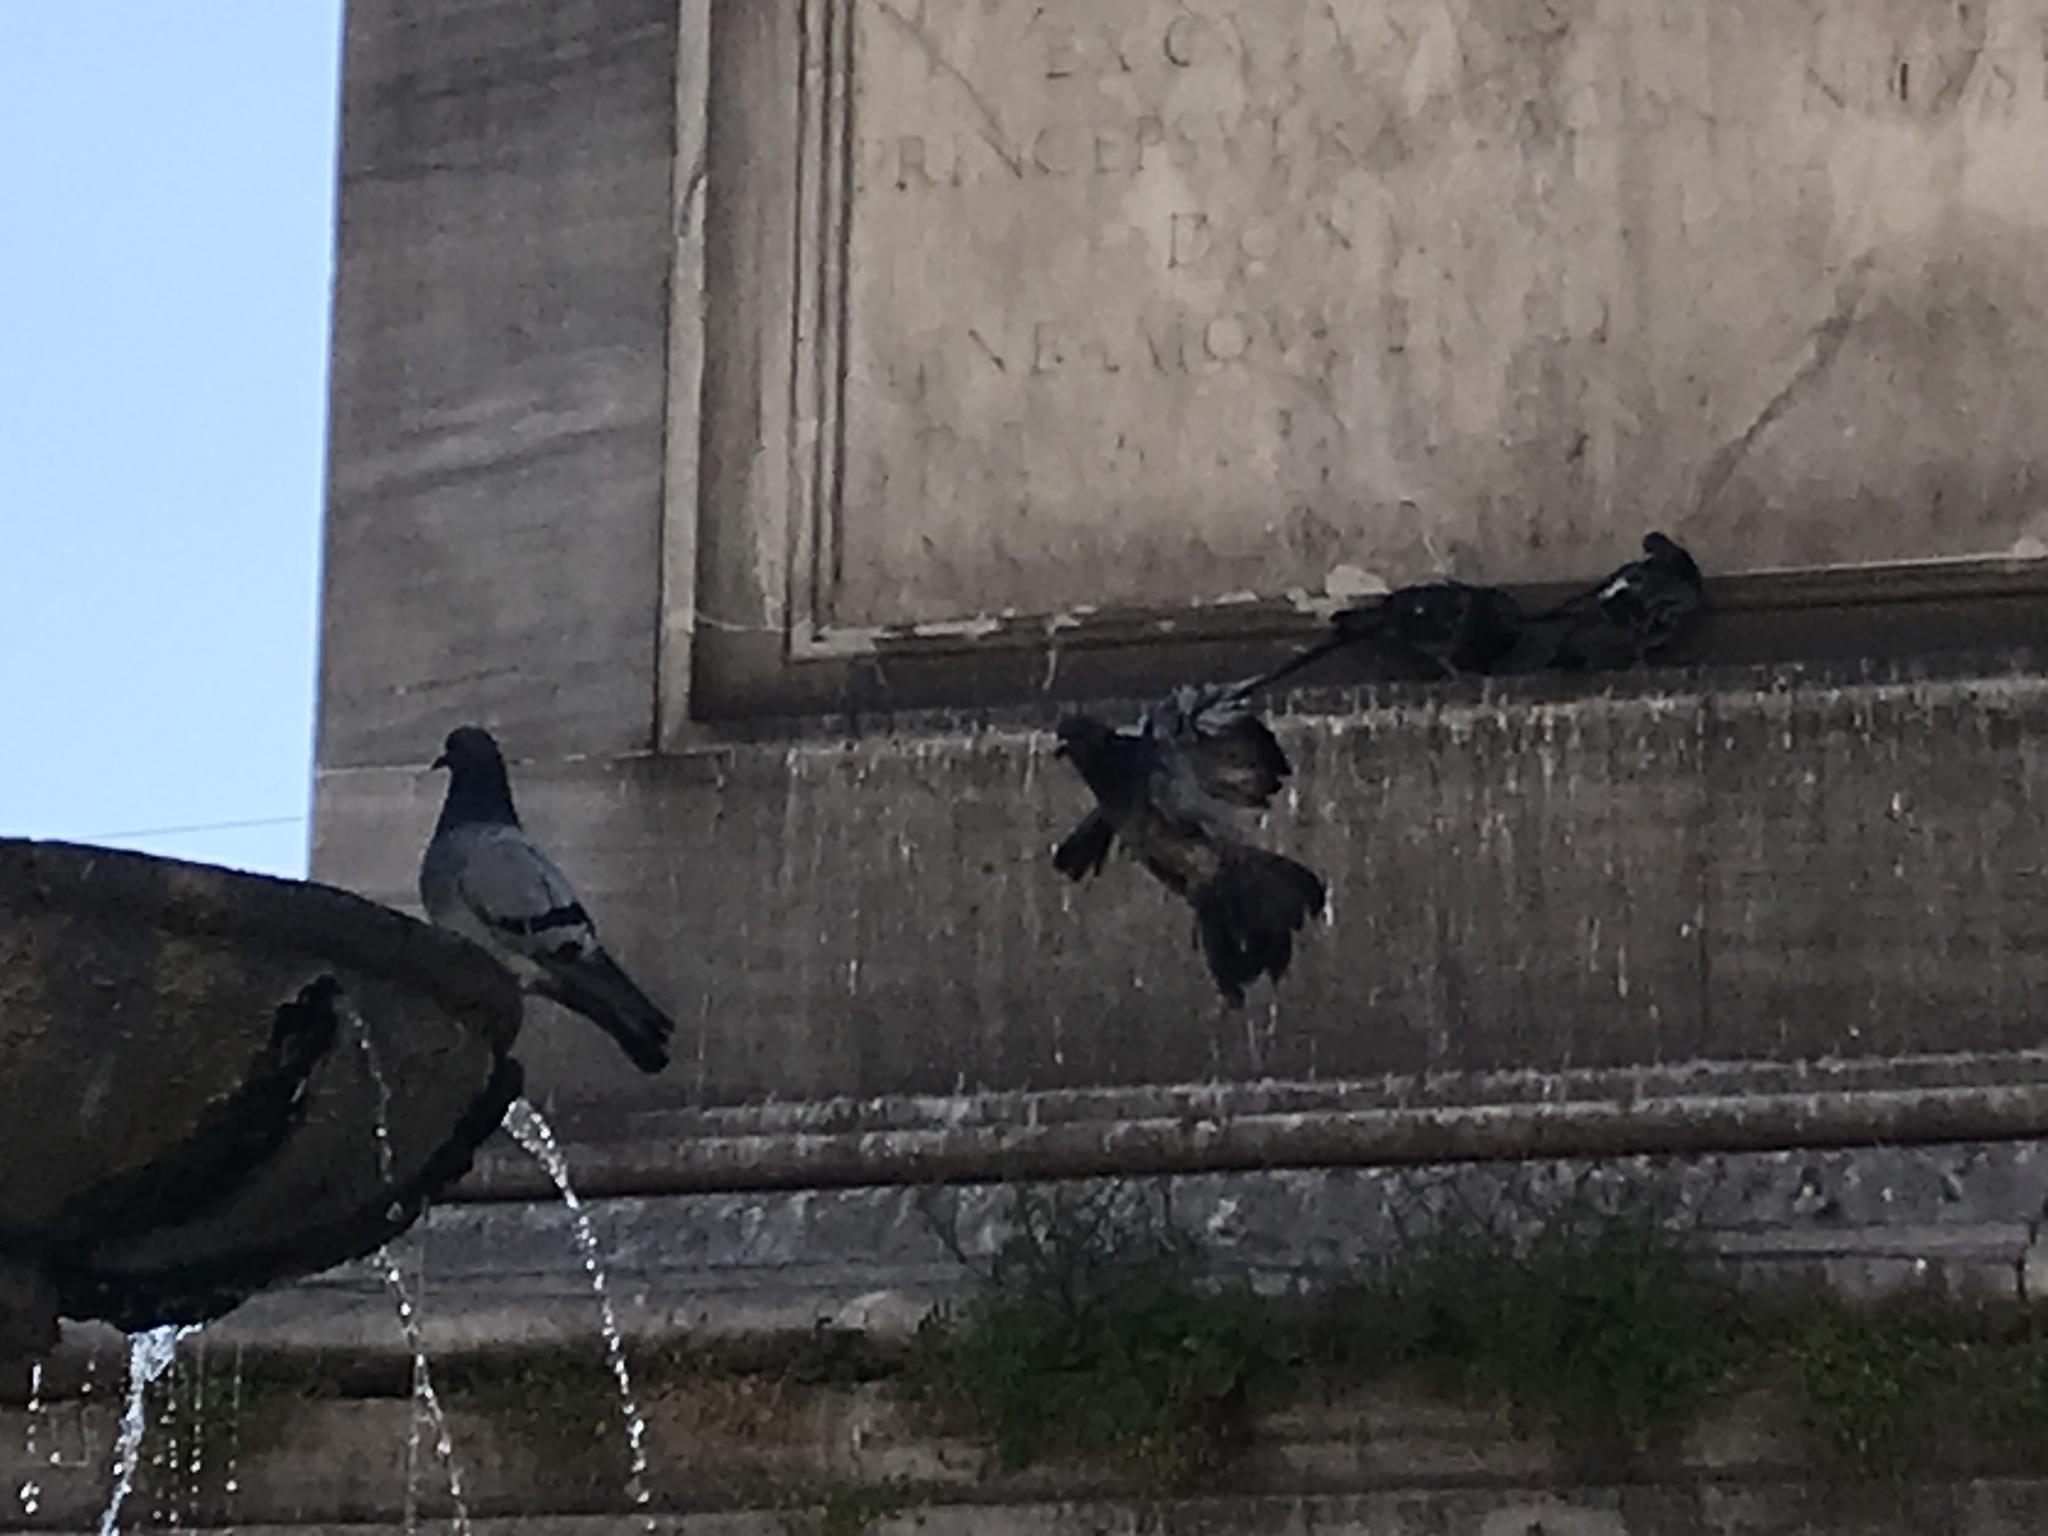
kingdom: Animalia
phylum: Chordata
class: Aves
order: Columbiformes
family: Columbidae
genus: Columba
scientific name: Columba livia
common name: Rock pigeon
